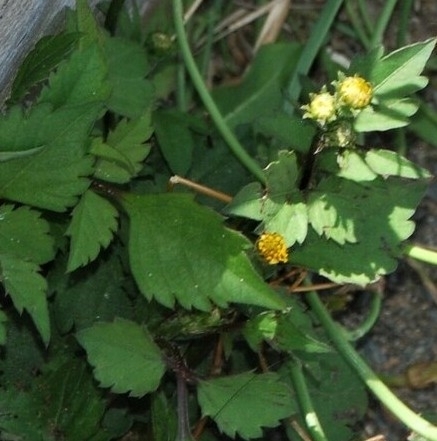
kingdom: Plantae
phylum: Tracheophyta
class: Magnoliopsida
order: Asterales
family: Asteraceae
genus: Bidens
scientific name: Bidens pilosa
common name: Black-jack
